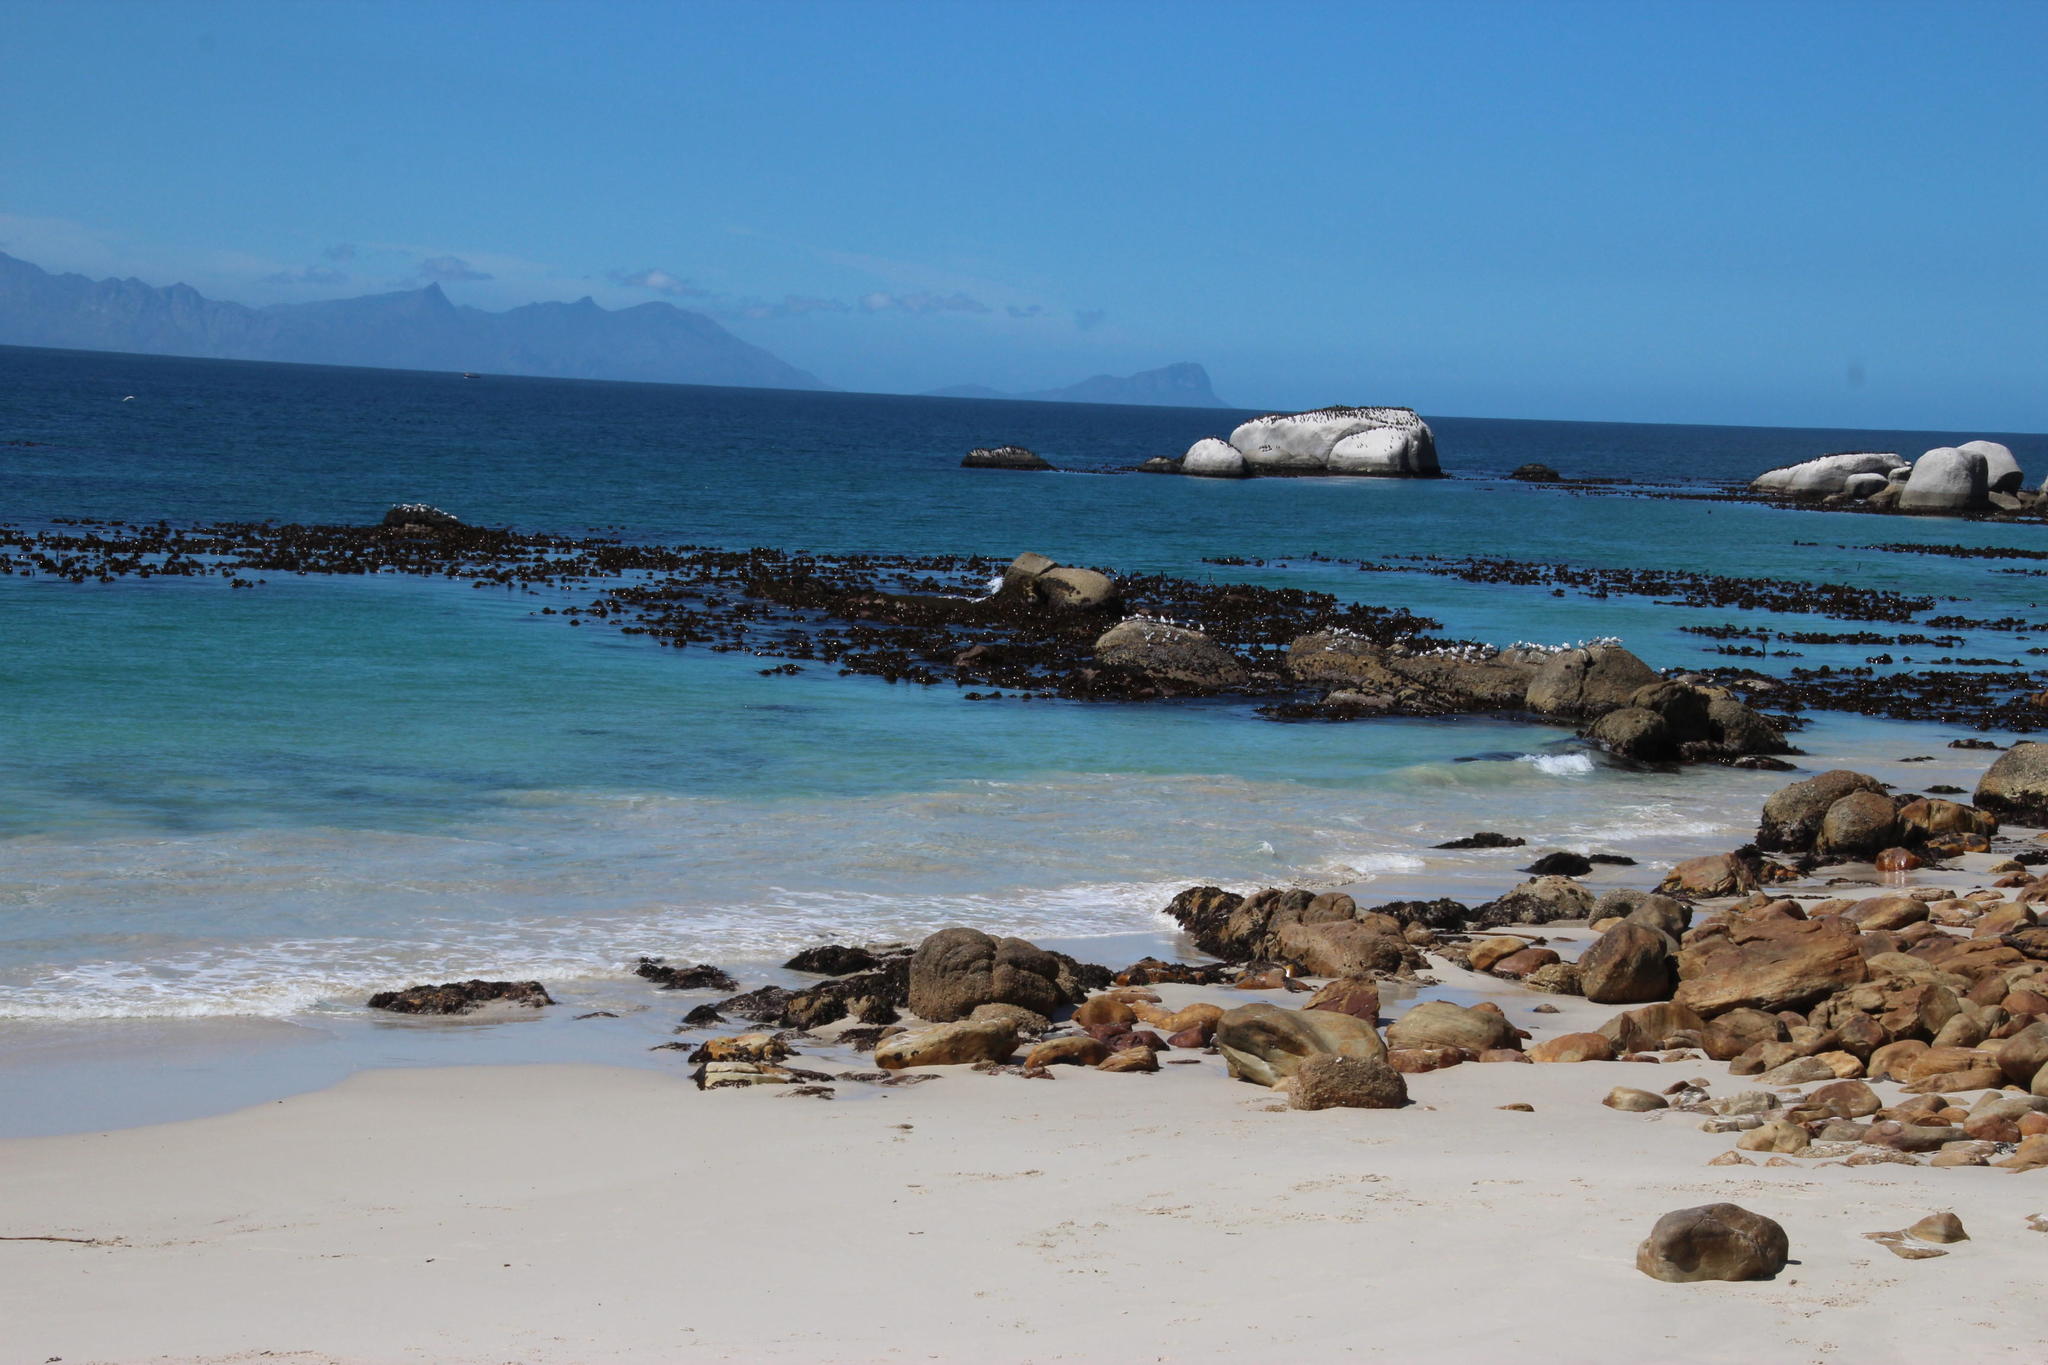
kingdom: Chromista
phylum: Ochrophyta
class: Phaeophyceae
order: Laminariales
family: Lessoniaceae
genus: Ecklonia
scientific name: Ecklonia
